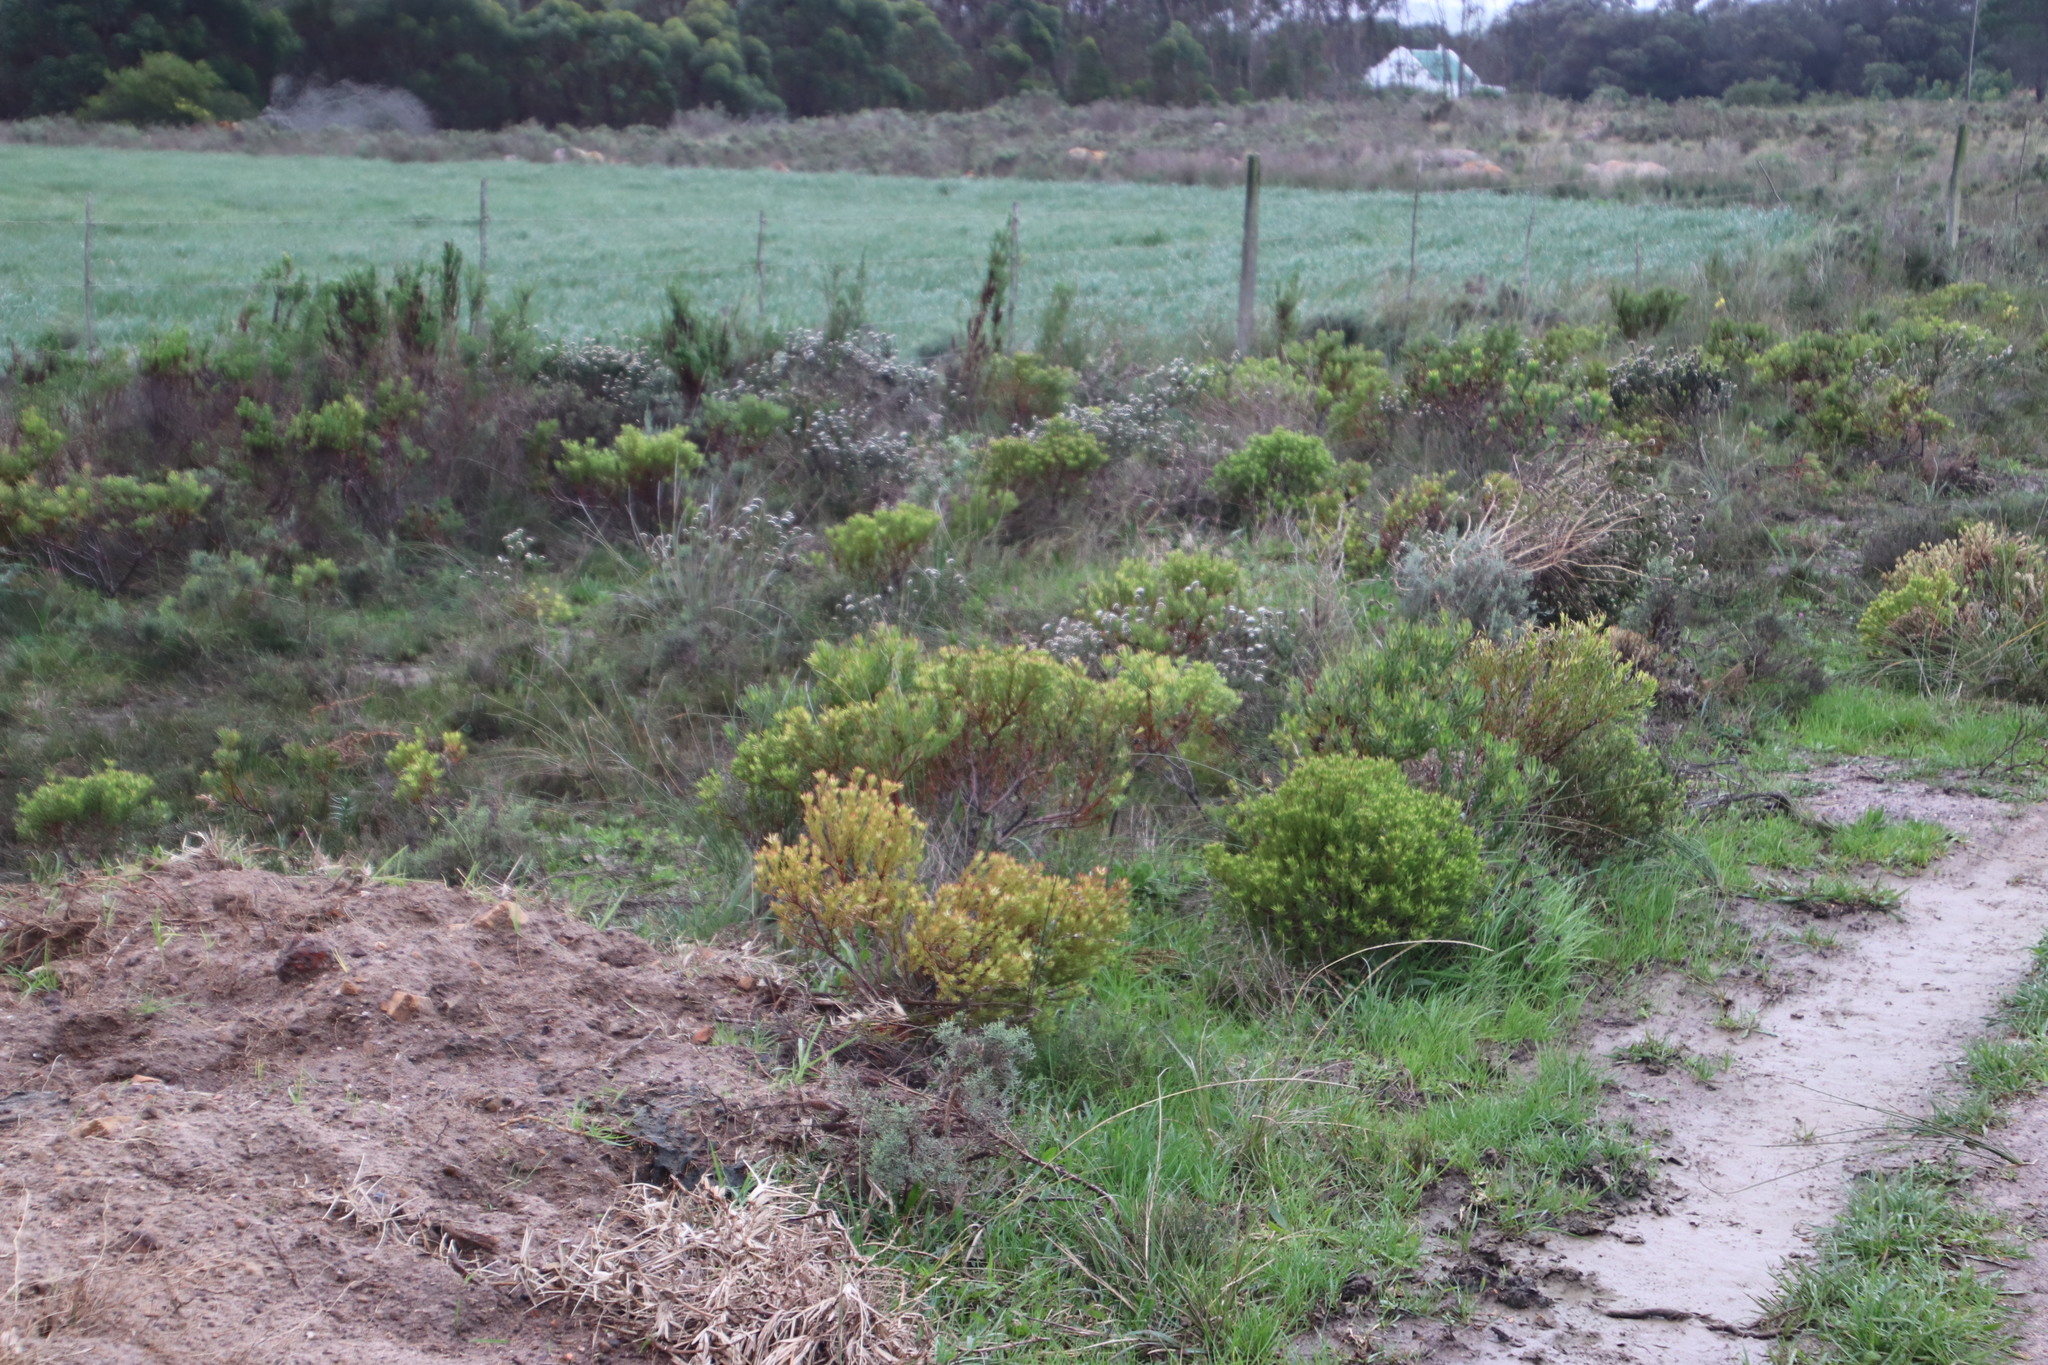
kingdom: Plantae
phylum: Tracheophyta
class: Magnoliopsida
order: Proteales
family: Proteaceae
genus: Leucadendron
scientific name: Leucadendron modestum
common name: Rough-leaf conebush
